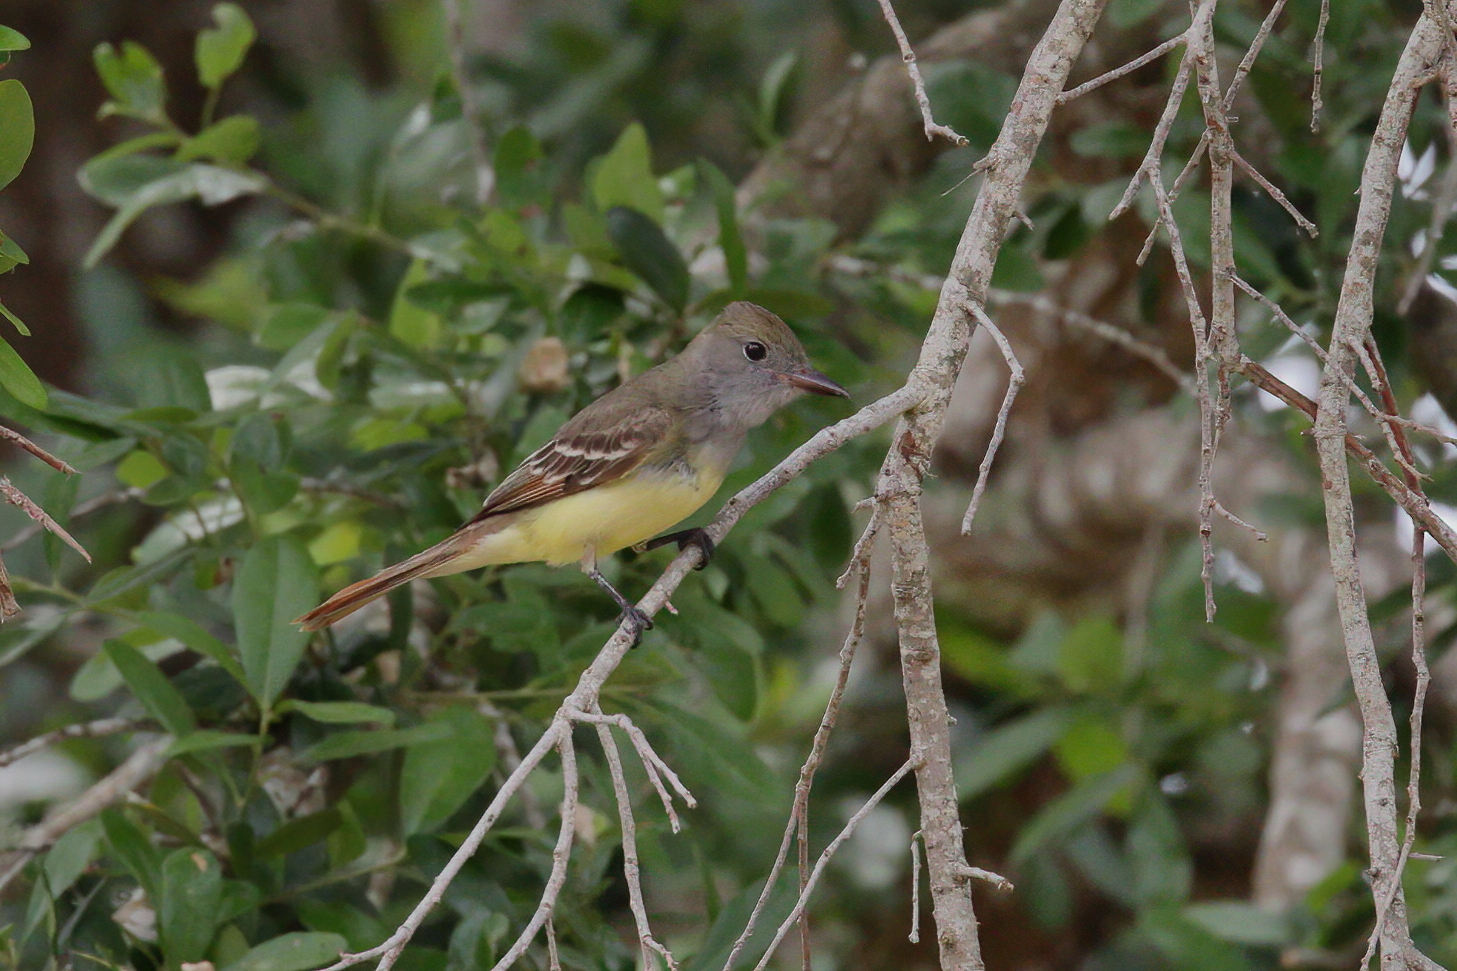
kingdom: Animalia
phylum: Chordata
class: Aves
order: Passeriformes
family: Tyrannidae
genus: Myiarchus
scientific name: Myiarchus crinitus
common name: Great crested flycatcher
